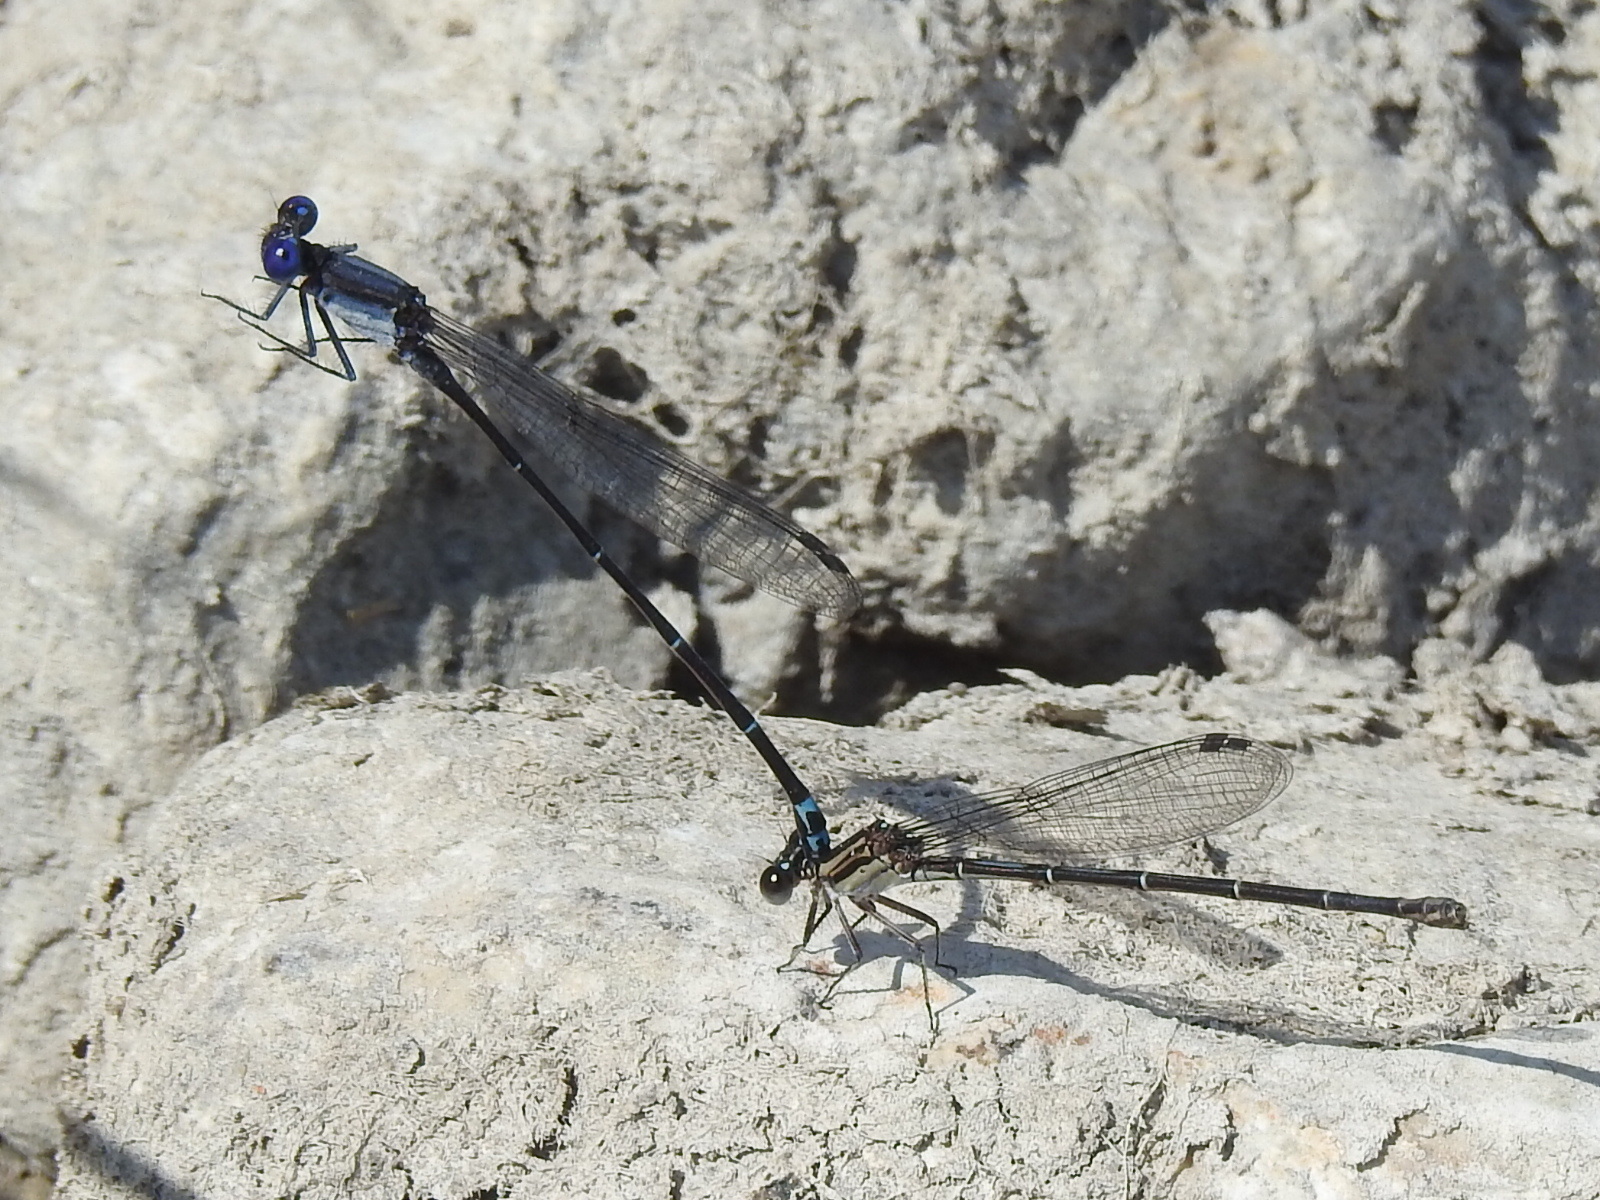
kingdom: Animalia
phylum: Arthropoda
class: Insecta
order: Odonata
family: Coenagrionidae
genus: Argia
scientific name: Argia translata
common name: Dusky dancer
